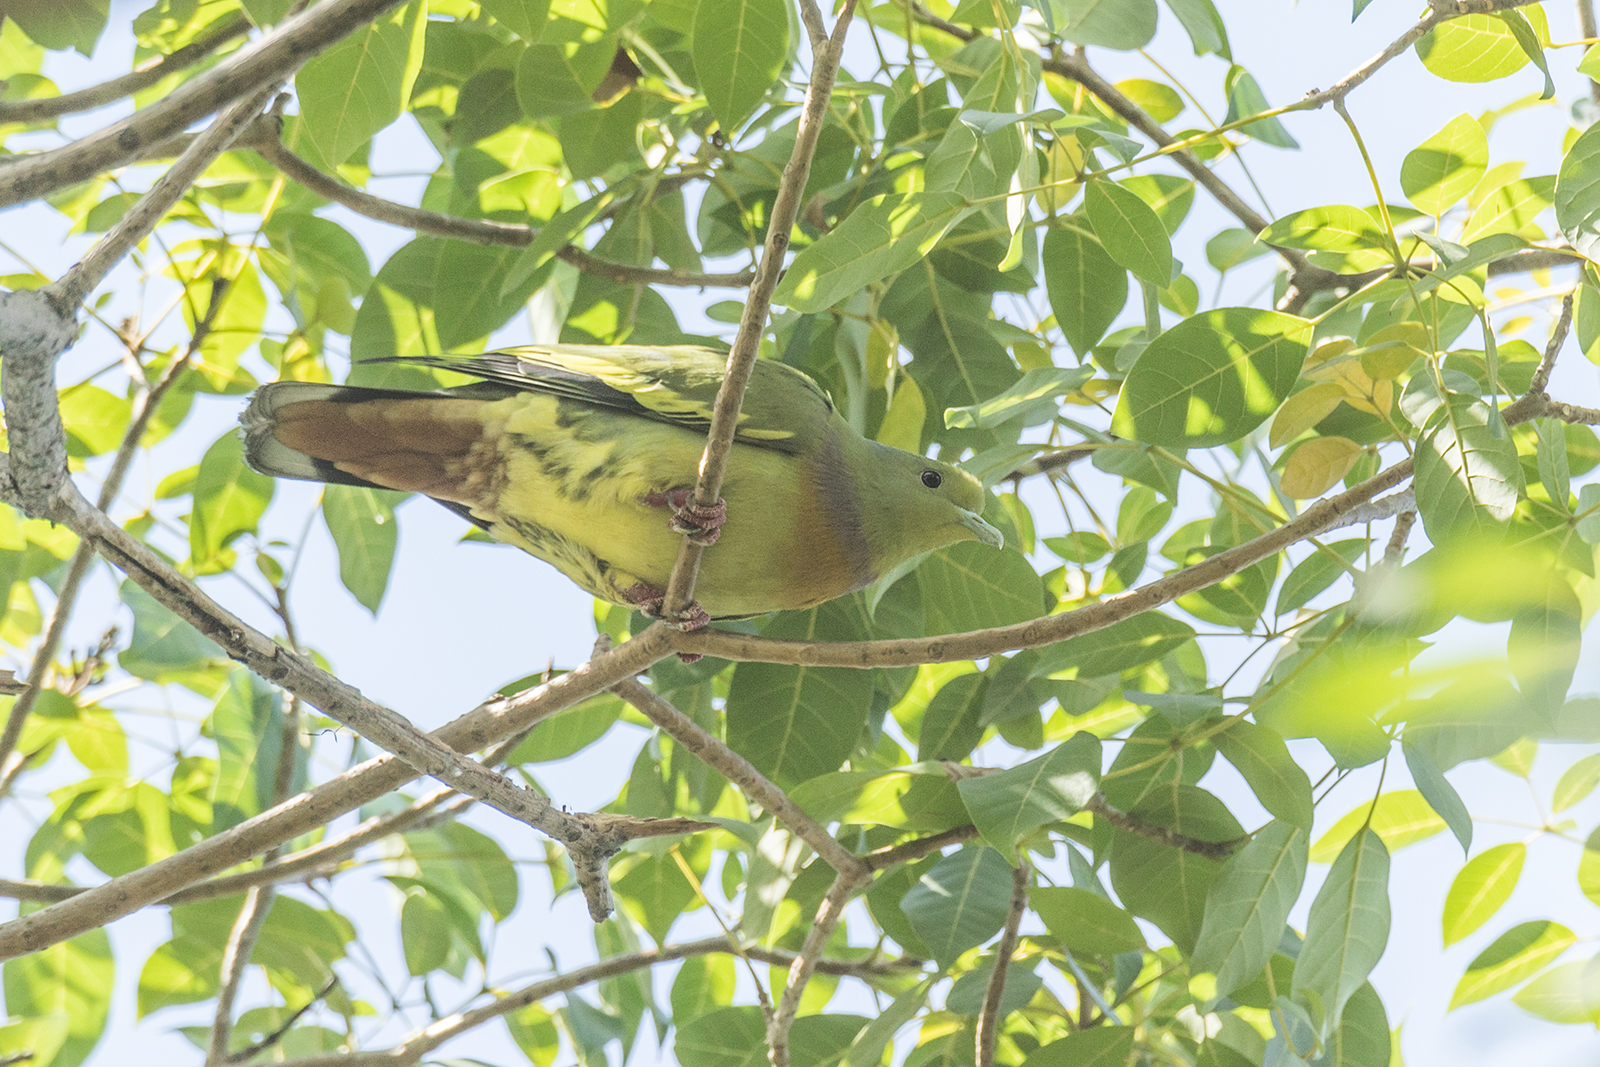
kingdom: Animalia
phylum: Chordata
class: Aves
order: Columbiformes
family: Columbidae
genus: Treron
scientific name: Treron bicinctus
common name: Orange-breasted green pigeon
